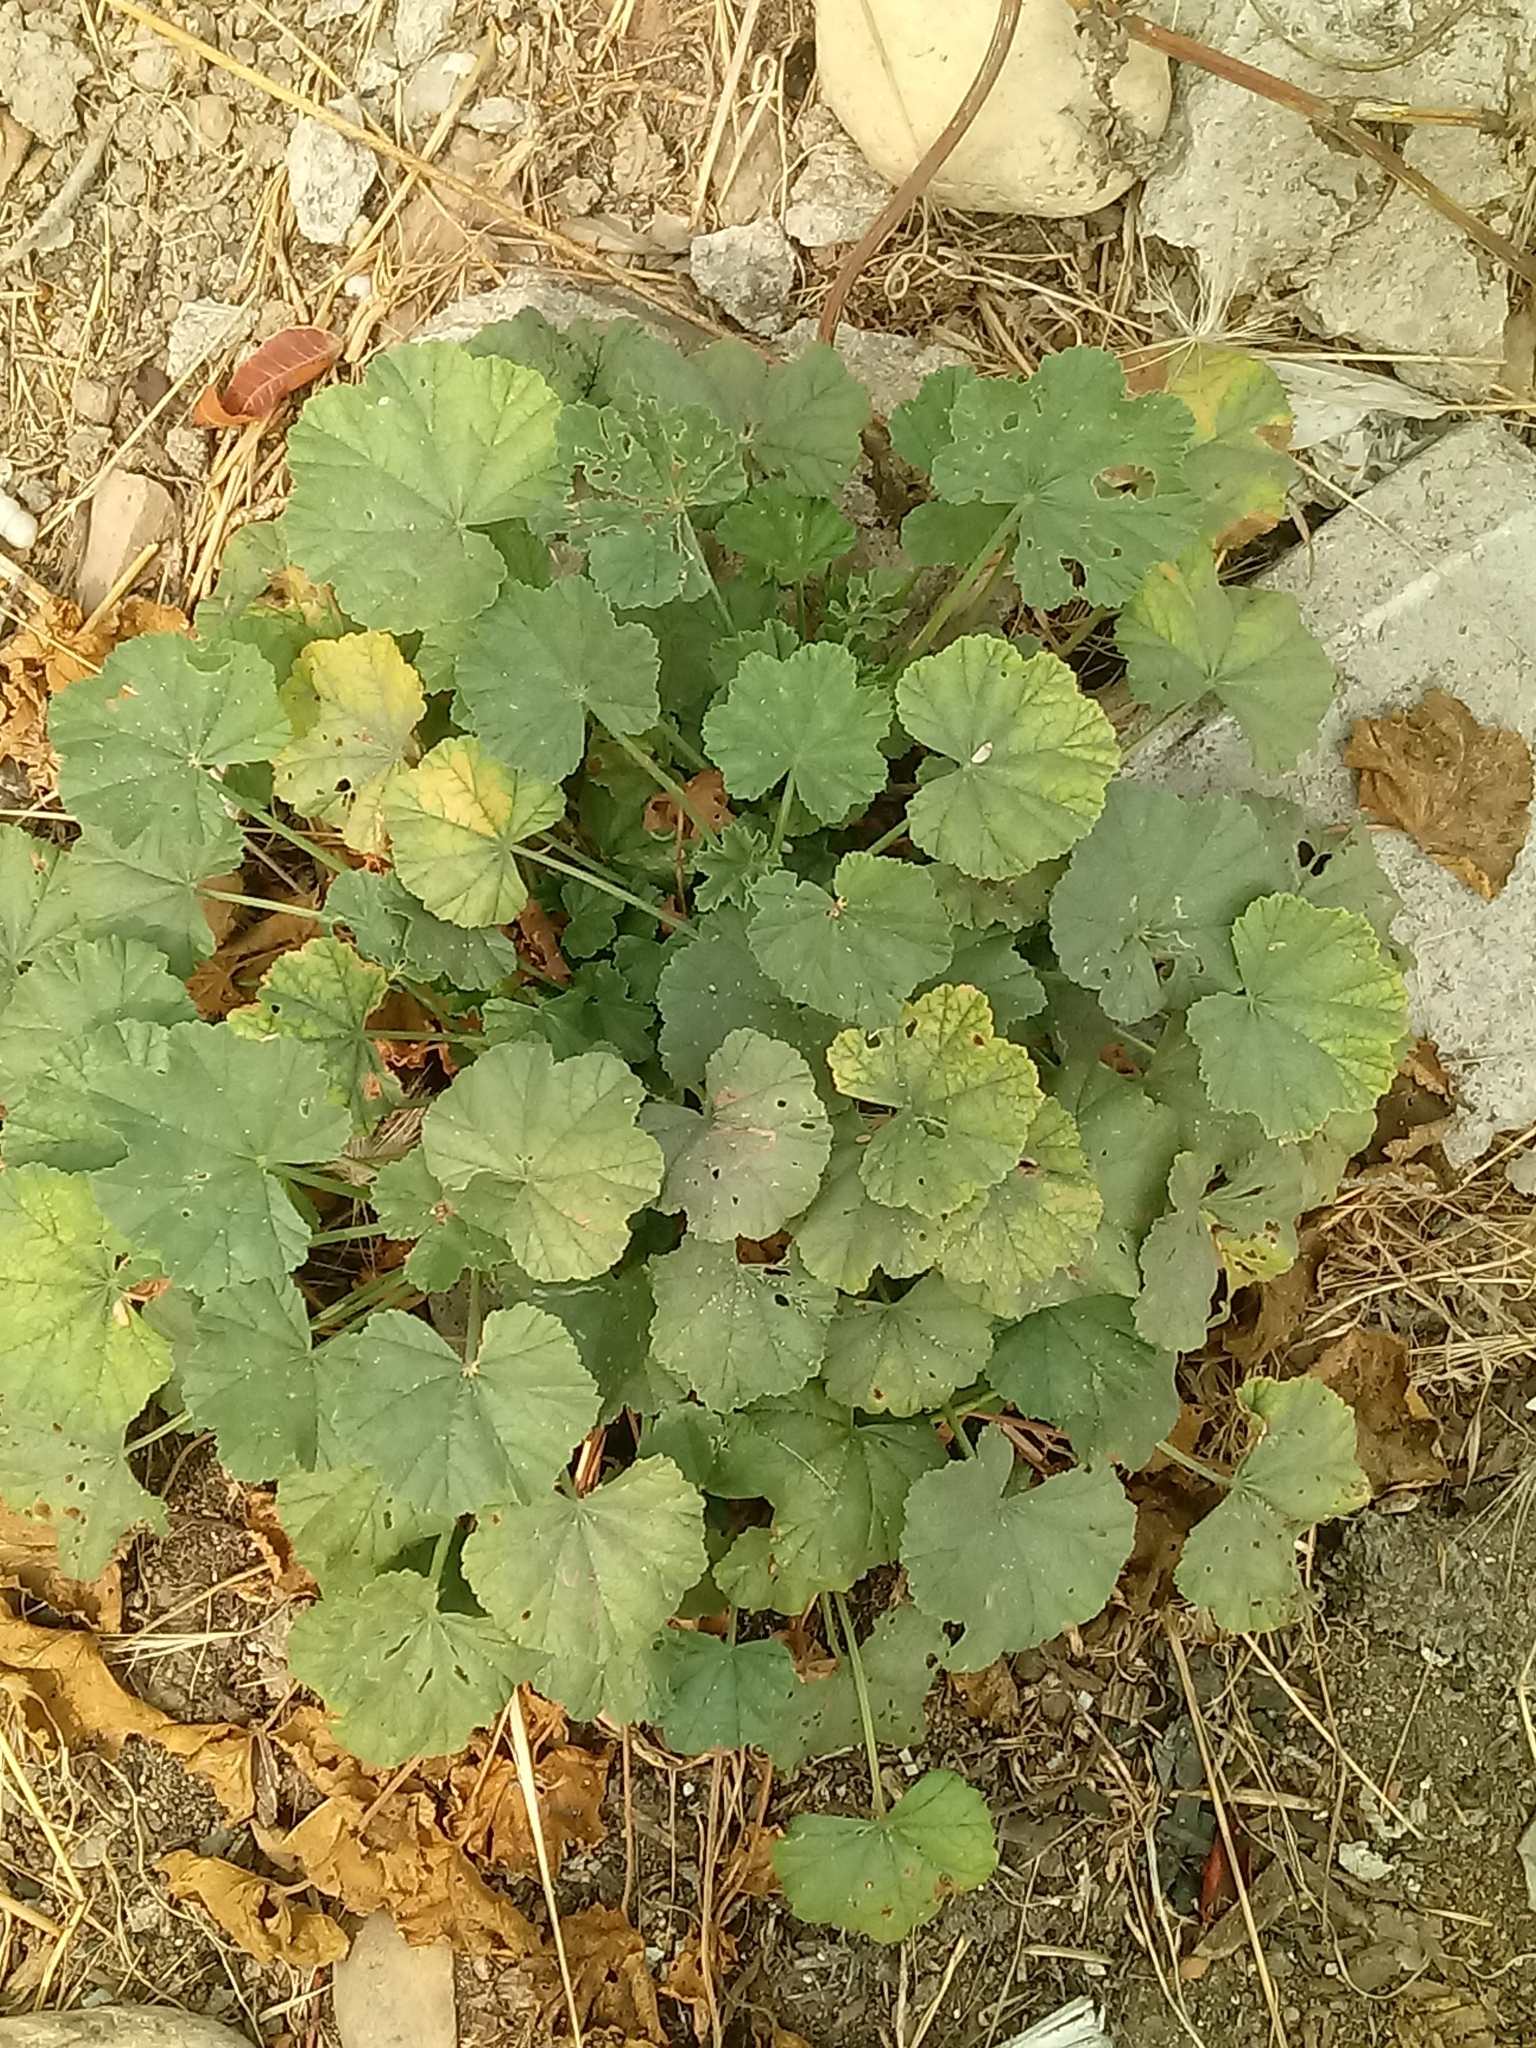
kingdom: Plantae
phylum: Tracheophyta
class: Magnoliopsida
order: Malvales
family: Malvaceae
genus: Malva
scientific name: Malva parviflora
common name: Least mallow
